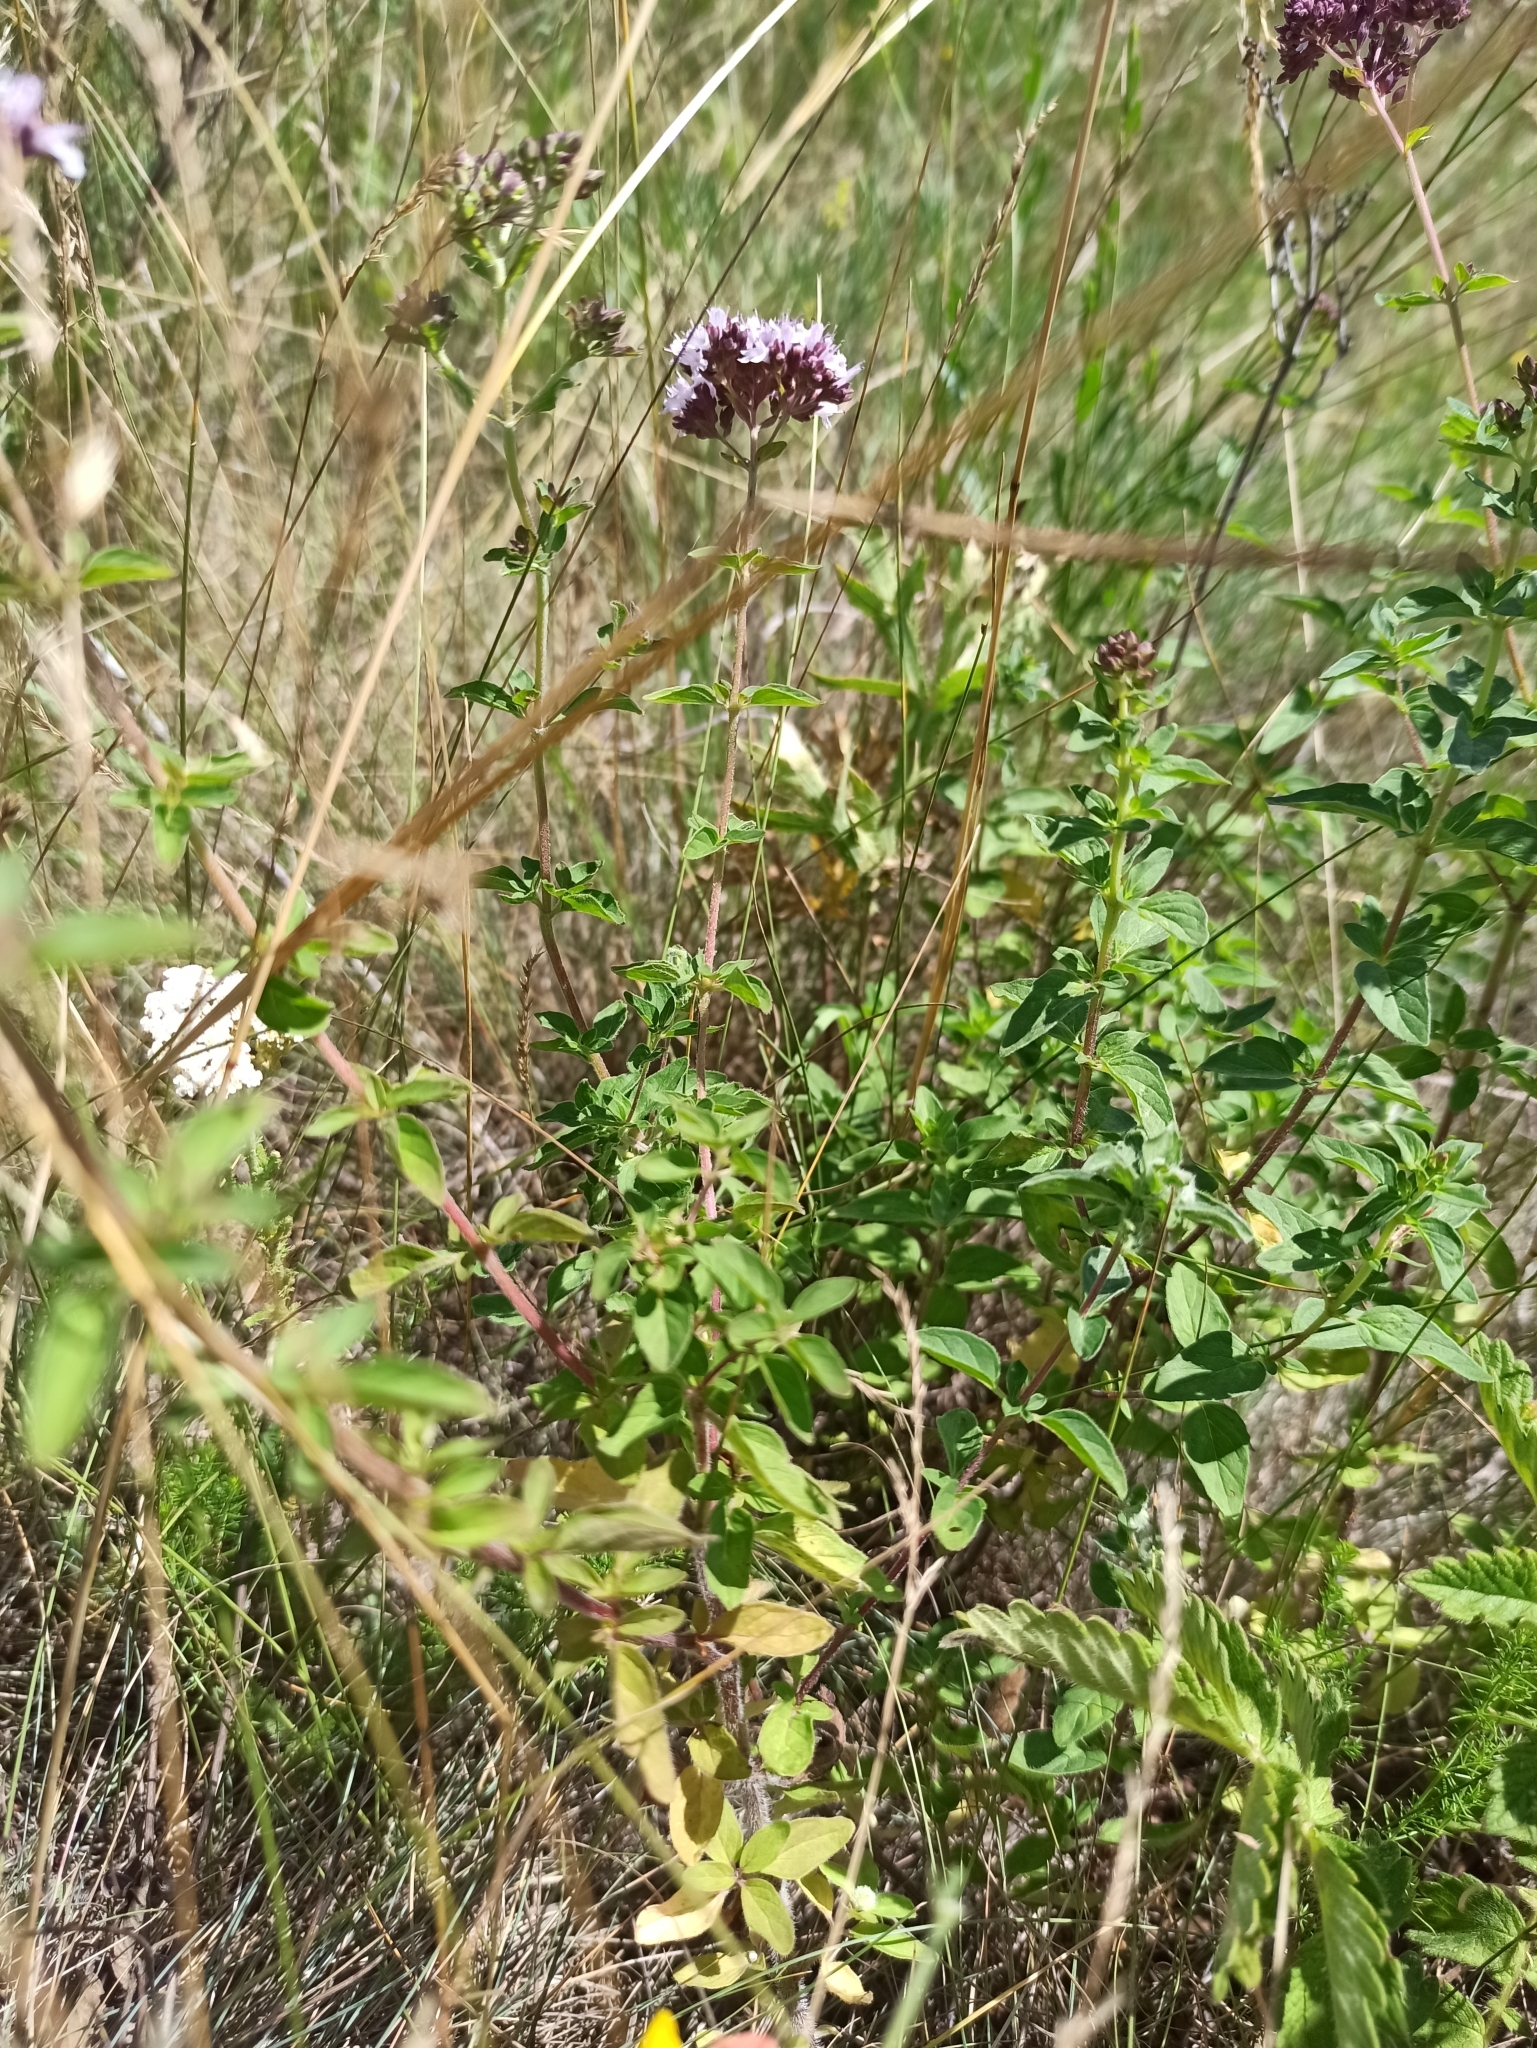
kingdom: Plantae
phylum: Tracheophyta
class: Magnoliopsida
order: Lamiales
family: Lamiaceae
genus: Origanum
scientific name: Origanum vulgare
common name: Wild marjoram
